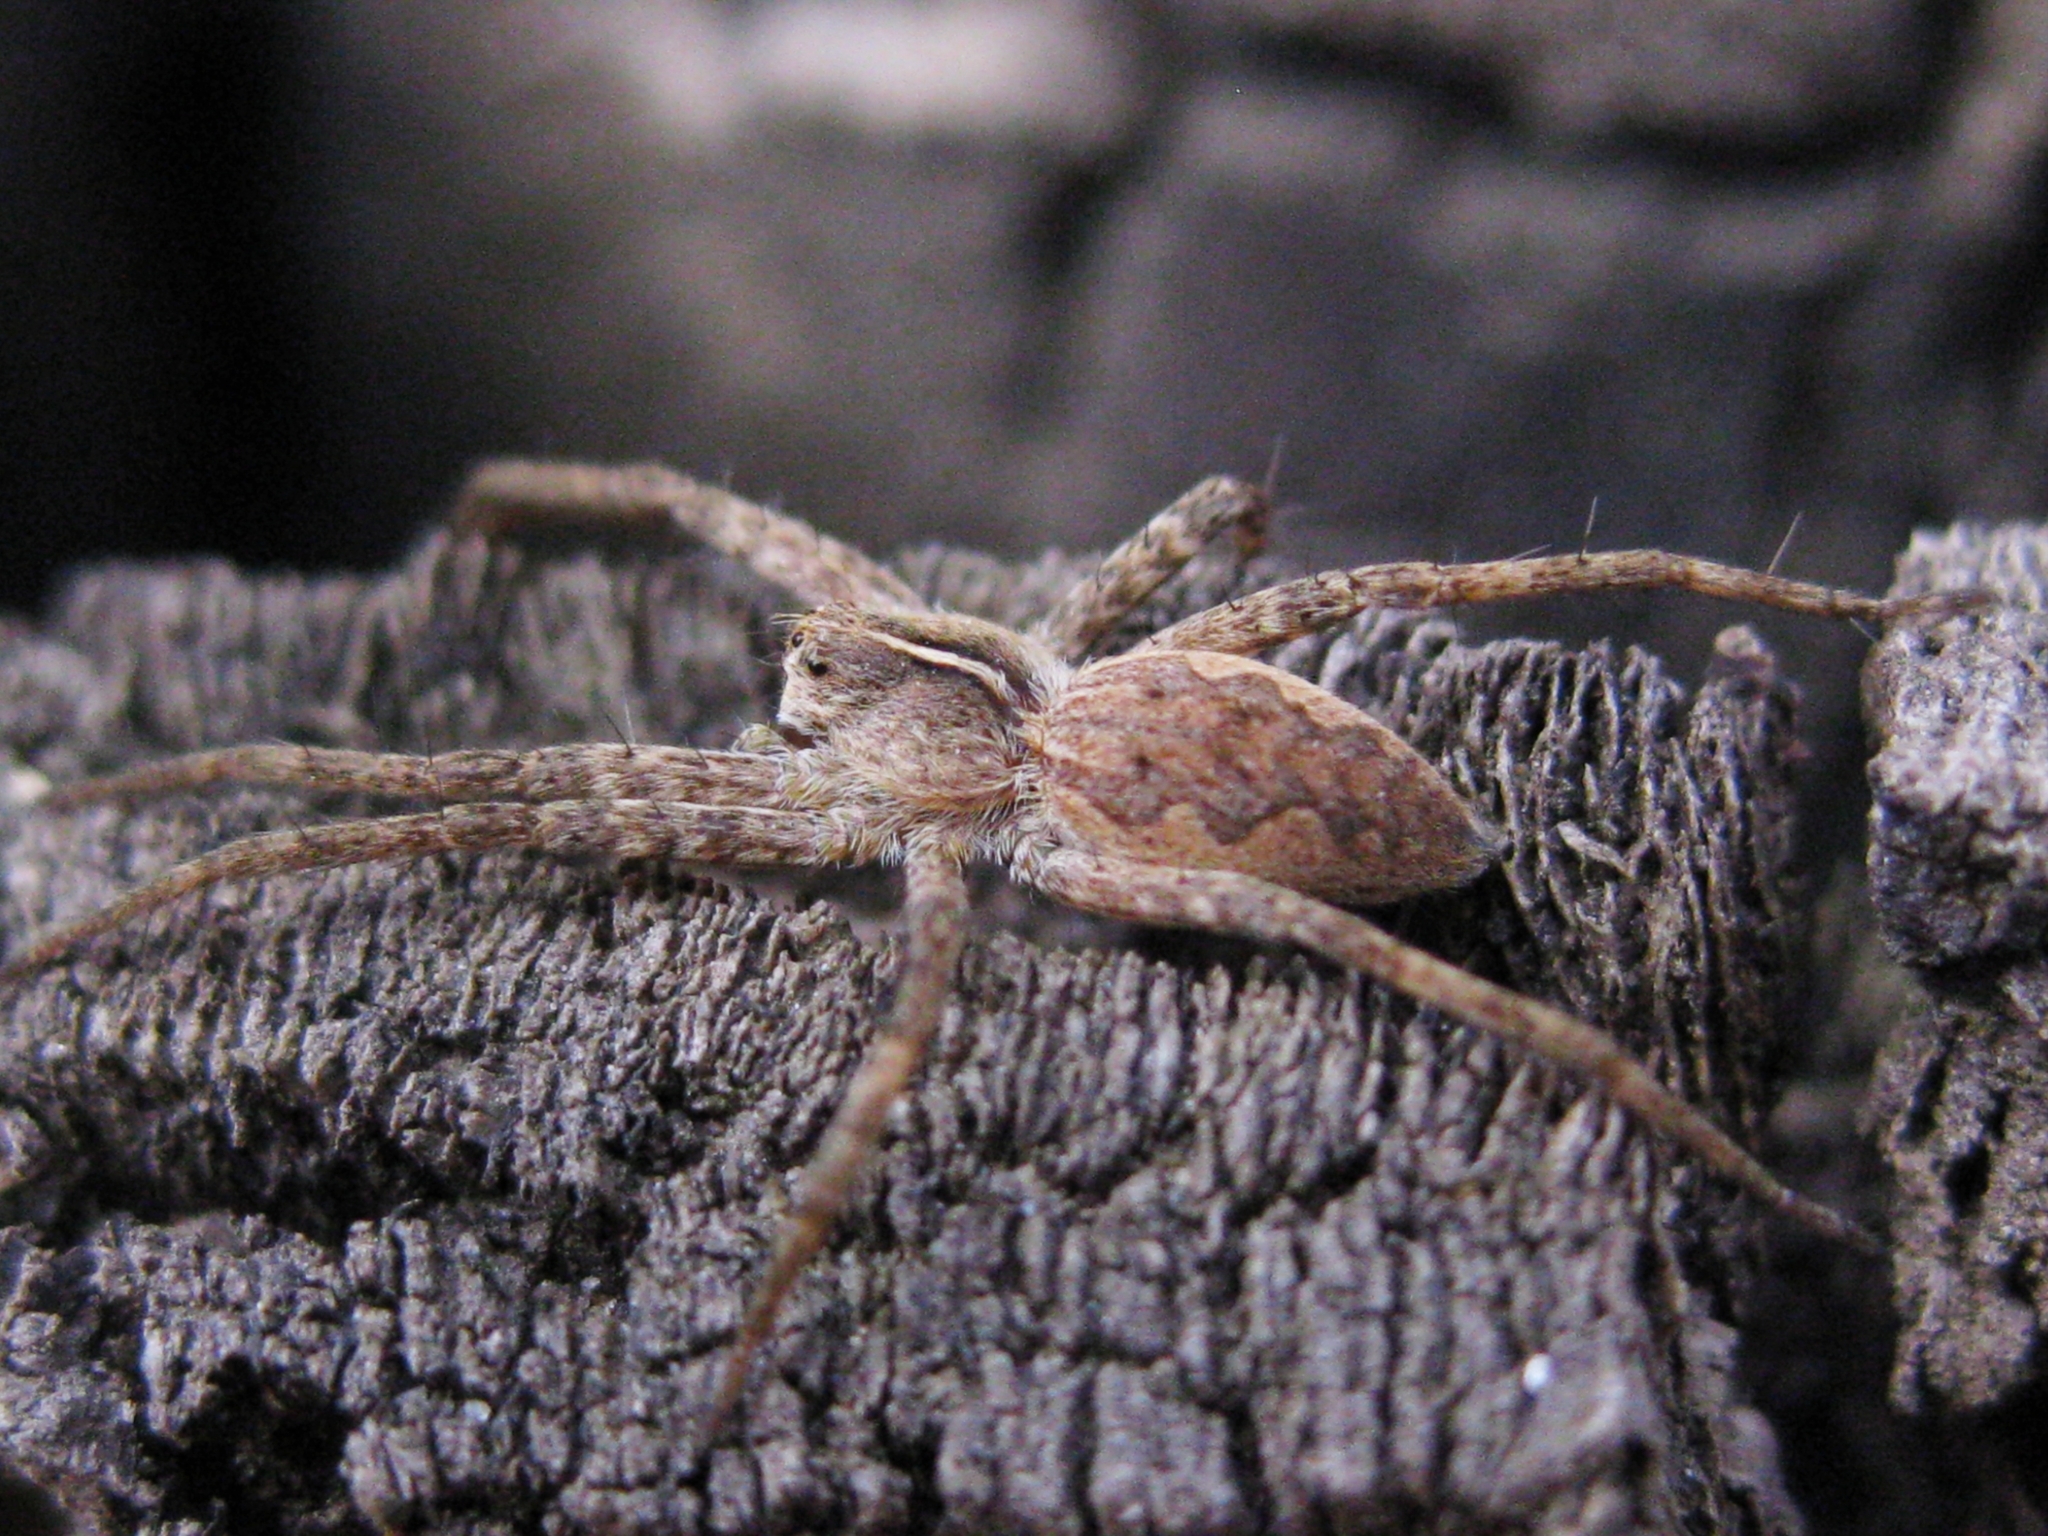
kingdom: Animalia
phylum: Arthropoda
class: Arachnida
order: Araneae
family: Pisauridae
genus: Pisaura
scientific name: Pisaura
